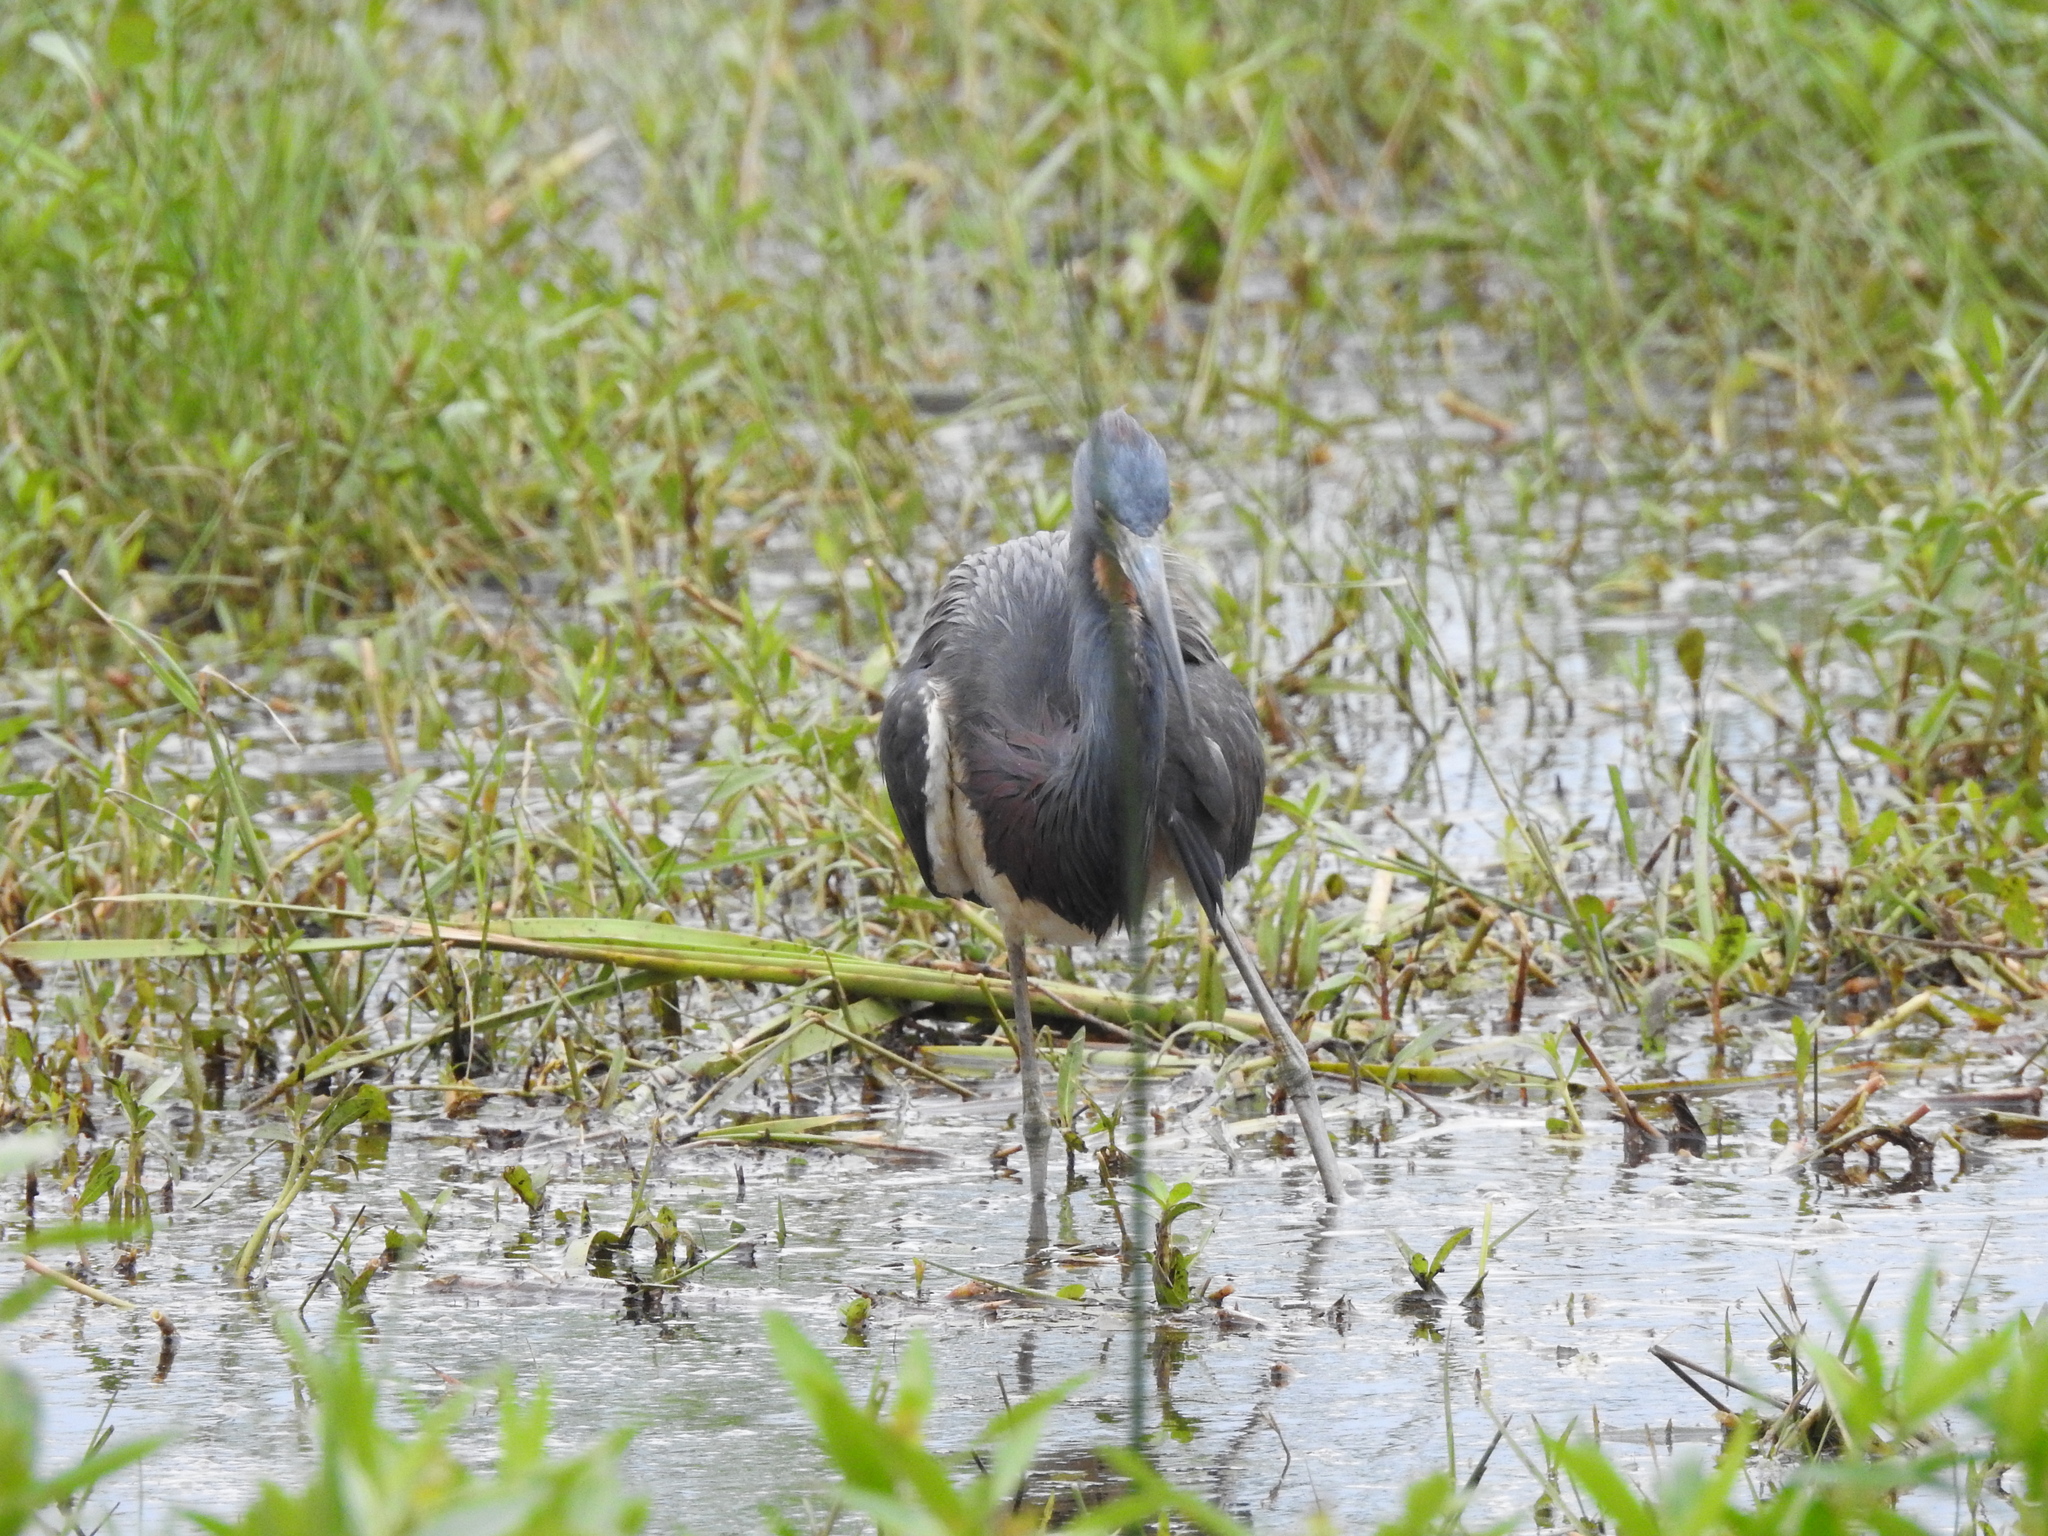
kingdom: Animalia
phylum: Chordata
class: Aves
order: Pelecaniformes
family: Ardeidae
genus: Egretta
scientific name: Egretta tricolor
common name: Tricolored heron
